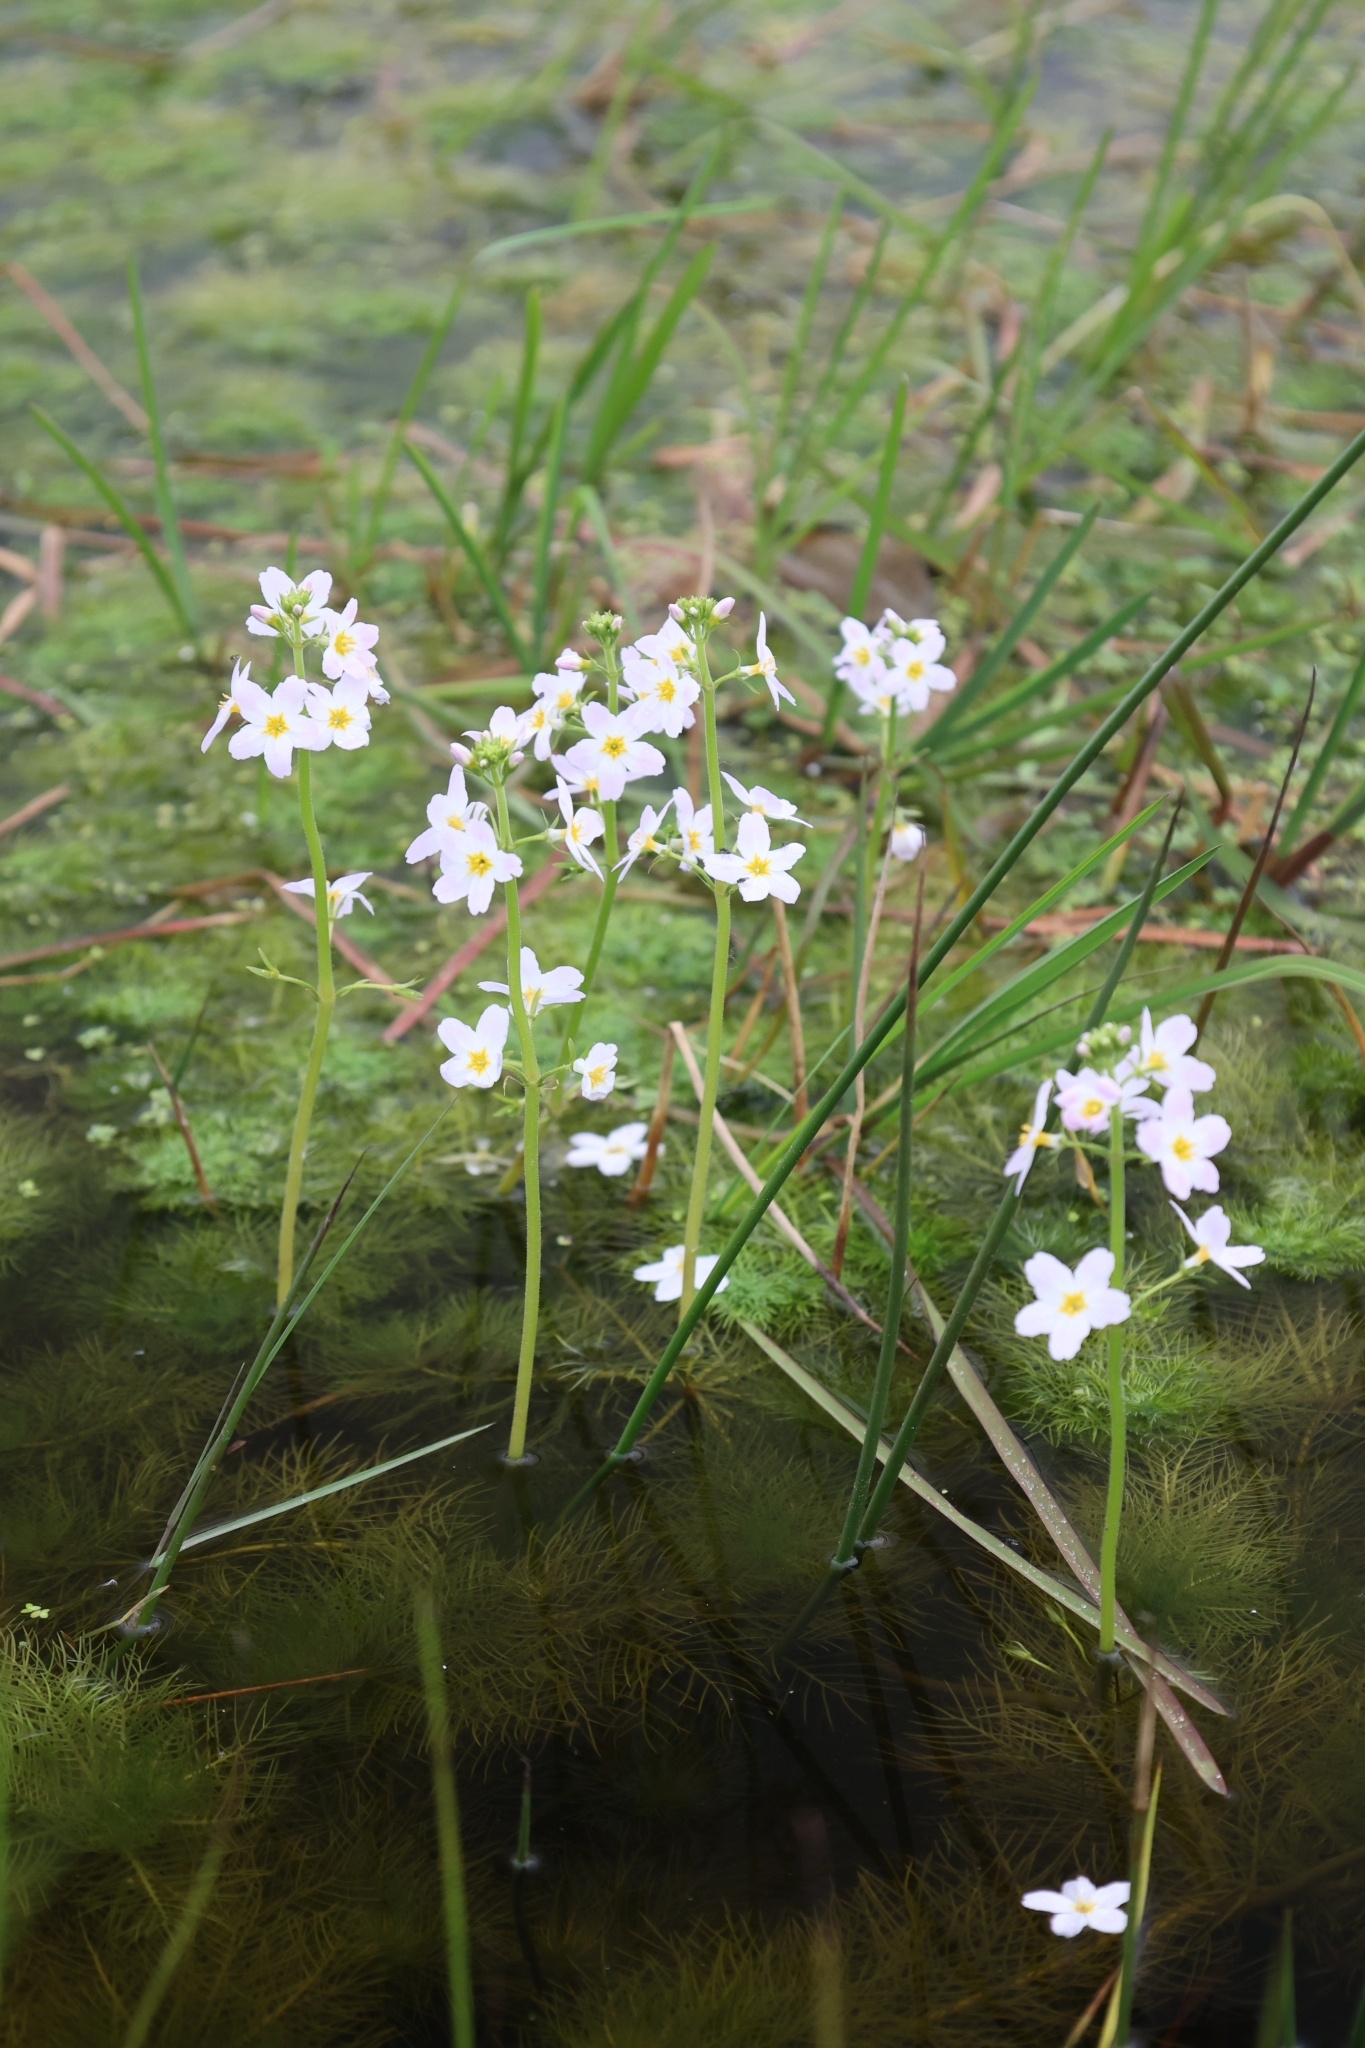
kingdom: Plantae
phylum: Tracheophyta
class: Magnoliopsida
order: Ericales
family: Primulaceae
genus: Hottonia
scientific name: Hottonia palustris
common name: Water-violet
